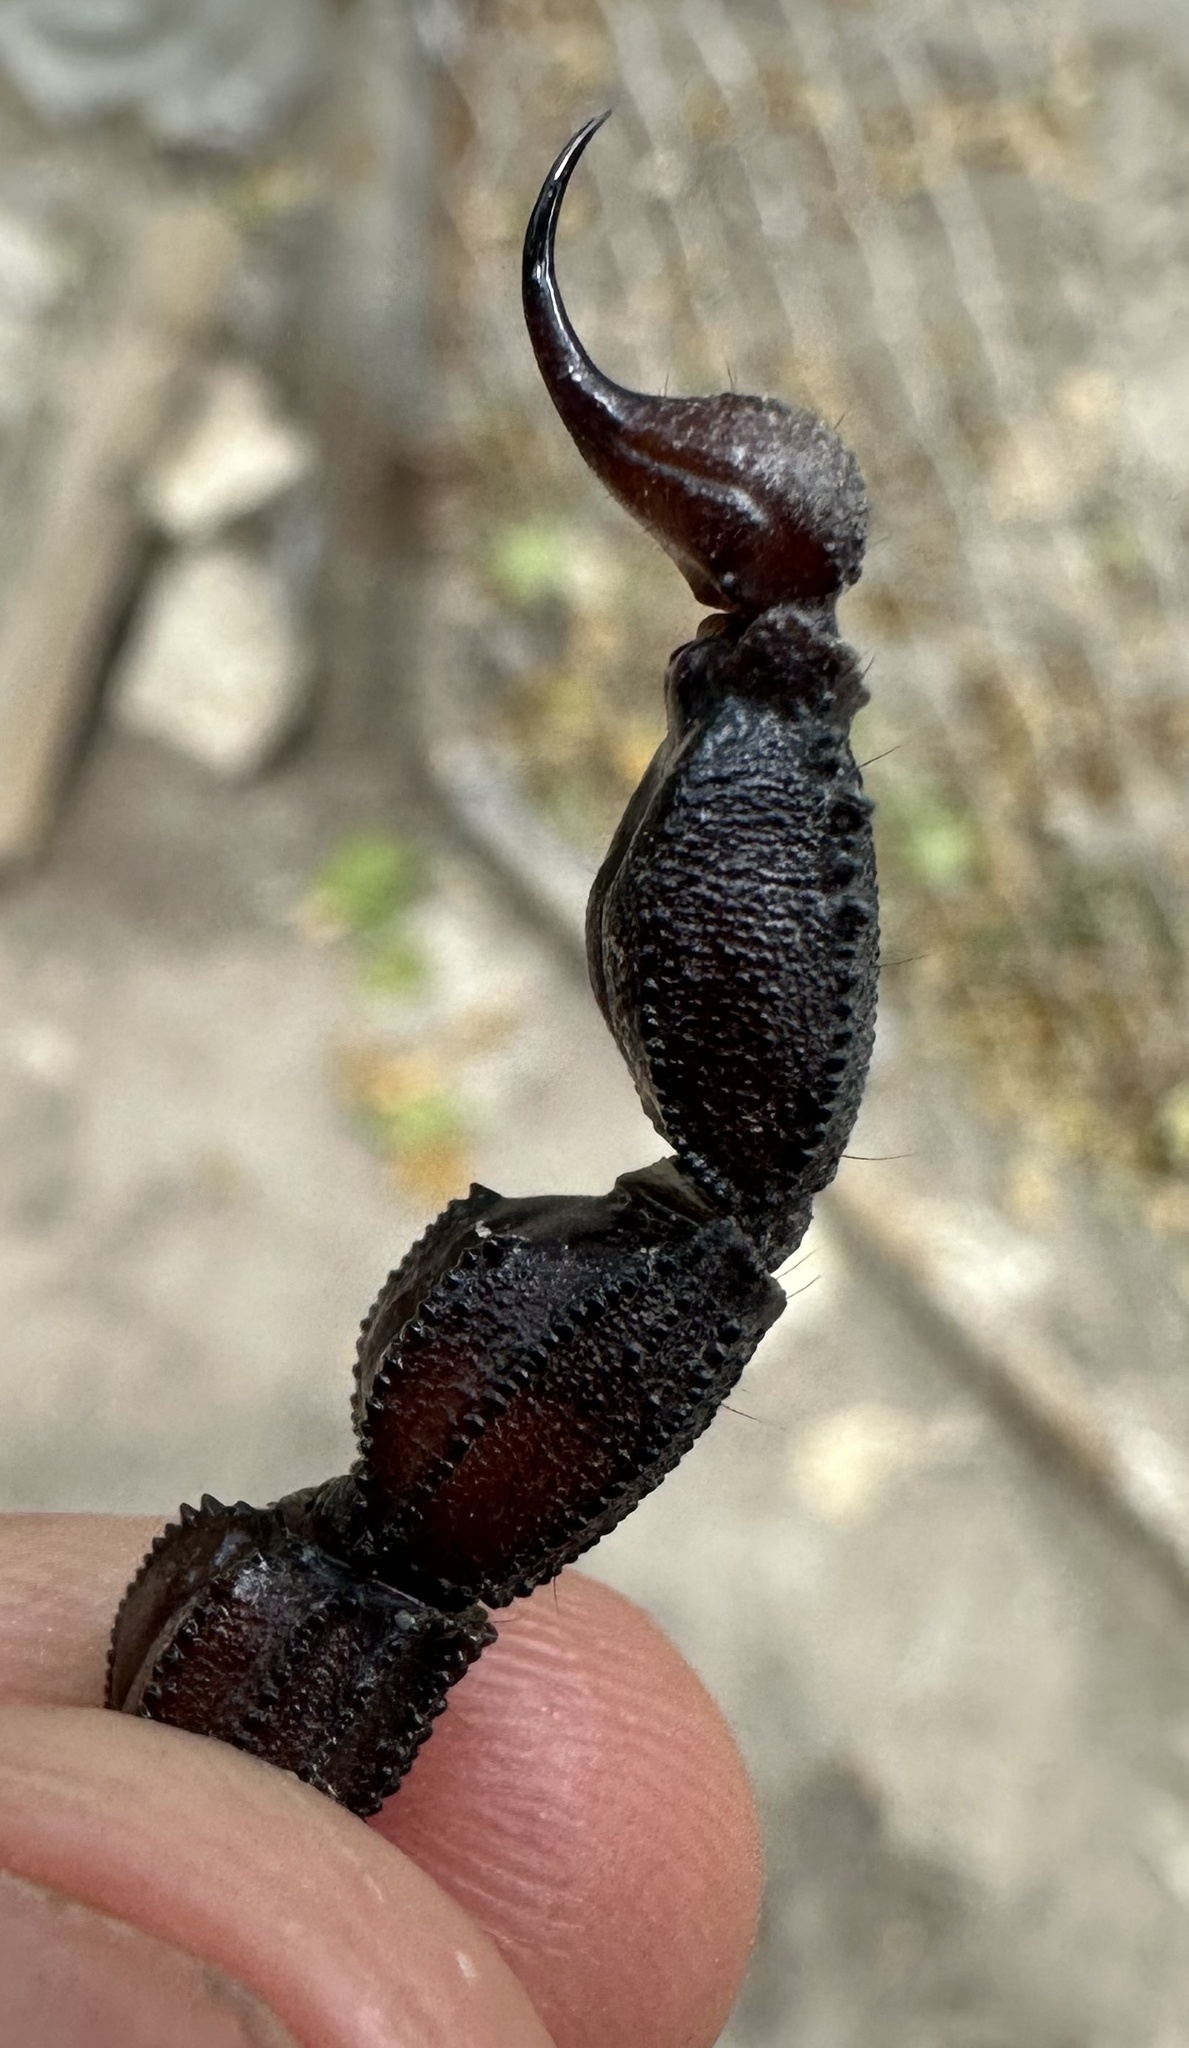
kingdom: Animalia
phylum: Arthropoda
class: Arachnida
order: Scorpiones
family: Buthidae
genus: Parabuthus
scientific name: Parabuthus granulatus
